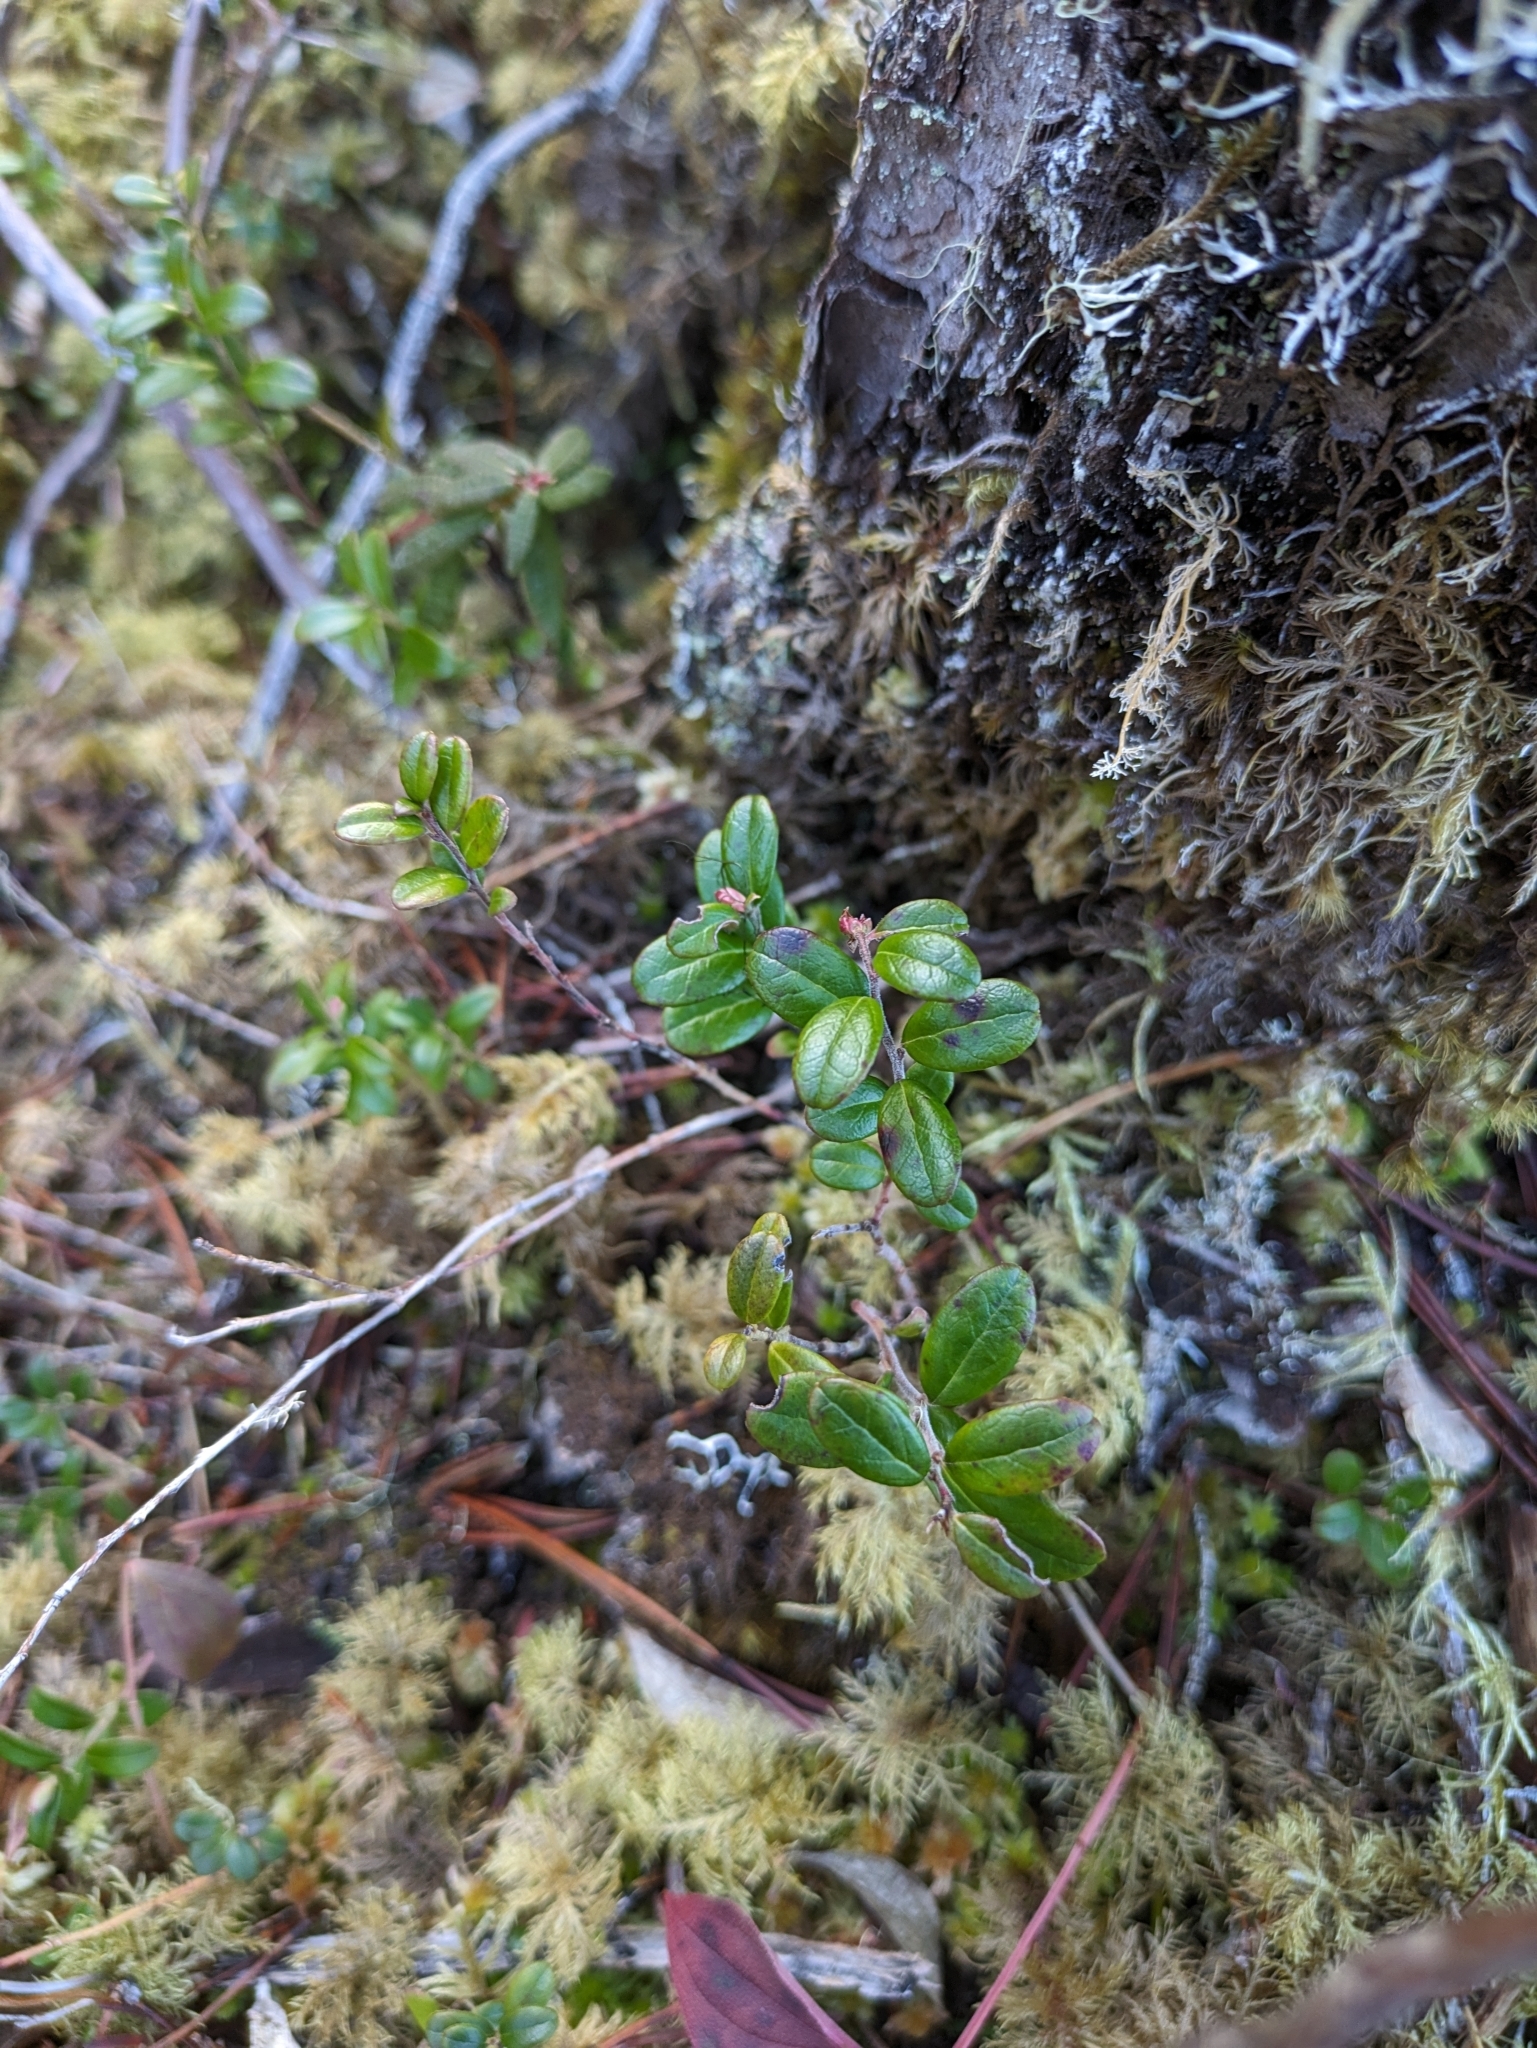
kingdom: Plantae
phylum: Tracheophyta
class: Magnoliopsida
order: Ericales
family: Ericaceae
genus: Vaccinium
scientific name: Vaccinium vitis-idaea
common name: Cowberry
